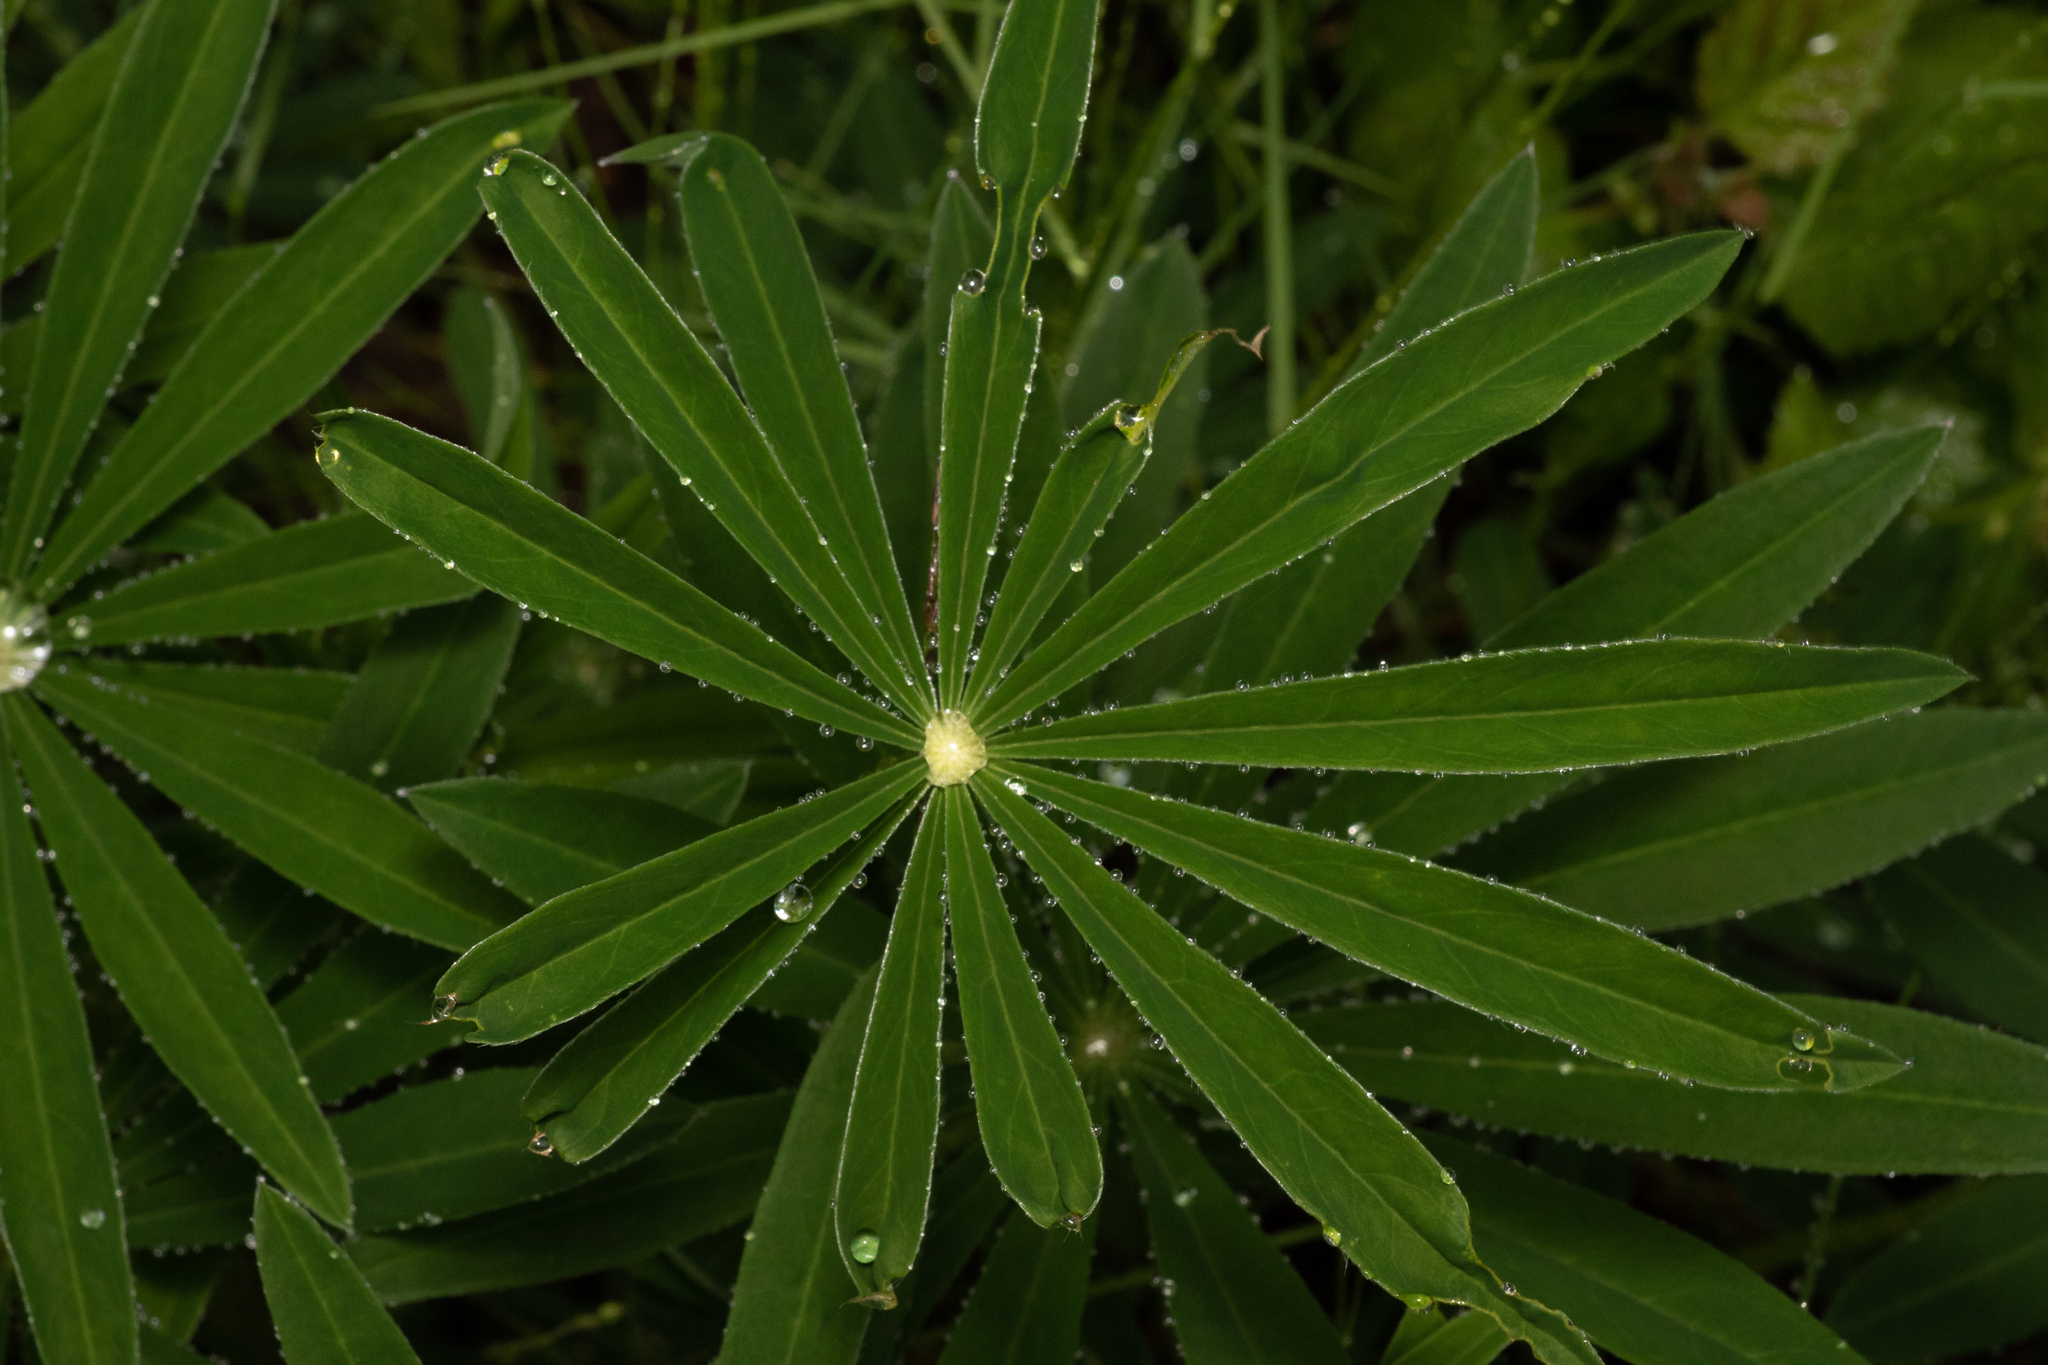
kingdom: Plantae
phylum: Tracheophyta
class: Magnoliopsida
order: Fabales
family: Fabaceae
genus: Lupinus
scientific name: Lupinus polyphyllus
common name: Garden lupin
